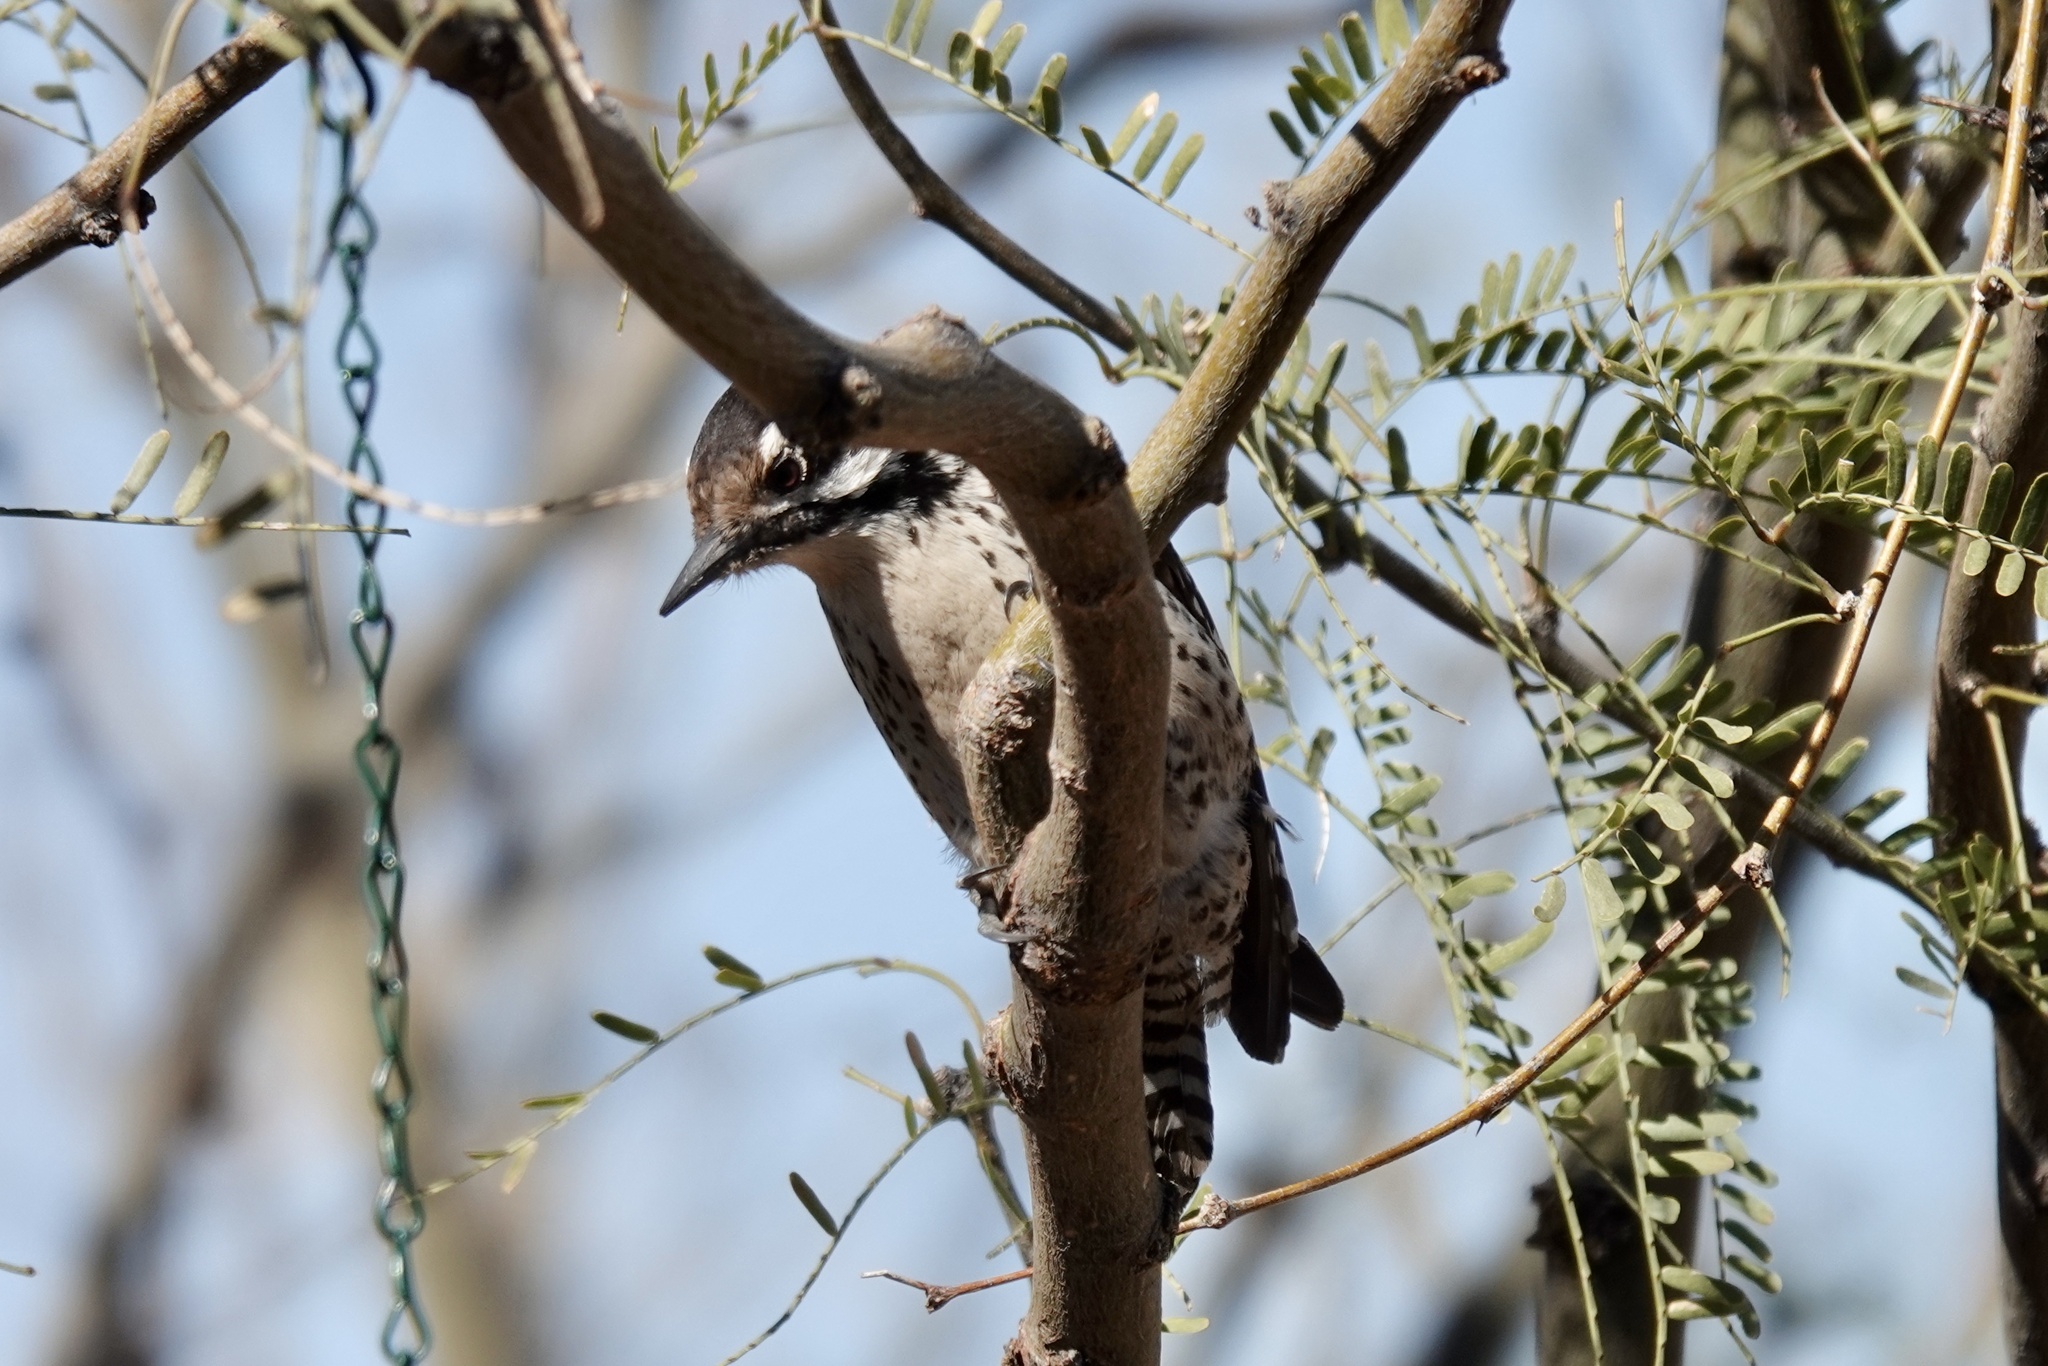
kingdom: Animalia
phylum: Chordata
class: Aves
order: Piciformes
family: Picidae
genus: Dryobates
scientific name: Dryobates scalaris
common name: Ladder-backed woodpecker
